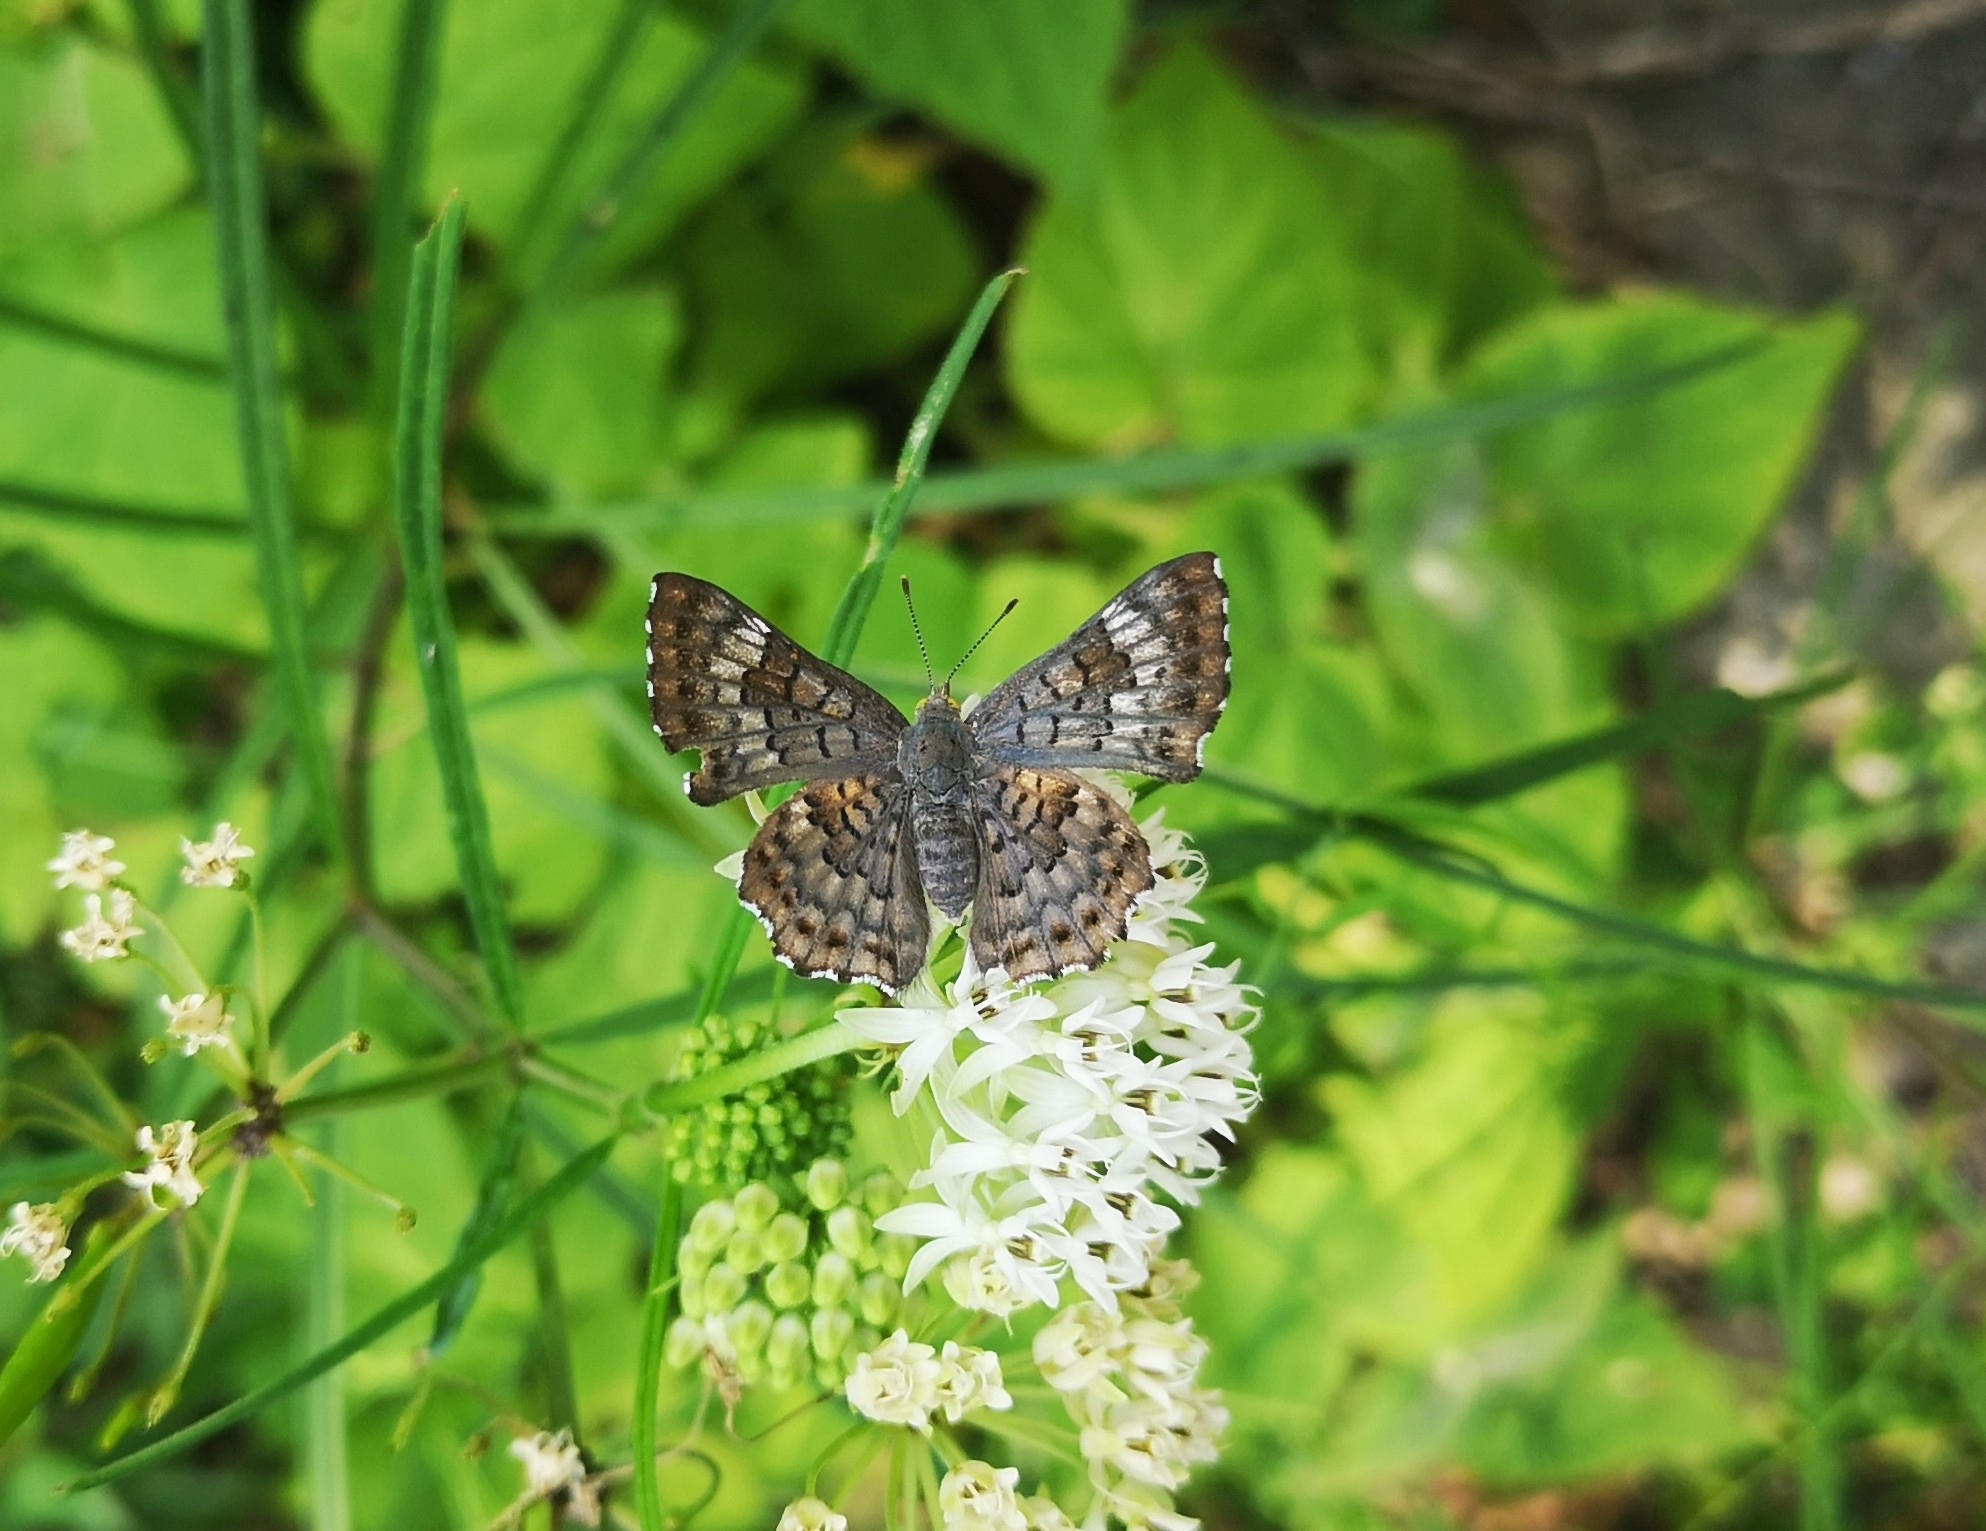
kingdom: Animalia
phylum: Arthropoda
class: Insecta
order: Lepidoptera
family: Riodinidae
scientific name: Riodinidae
